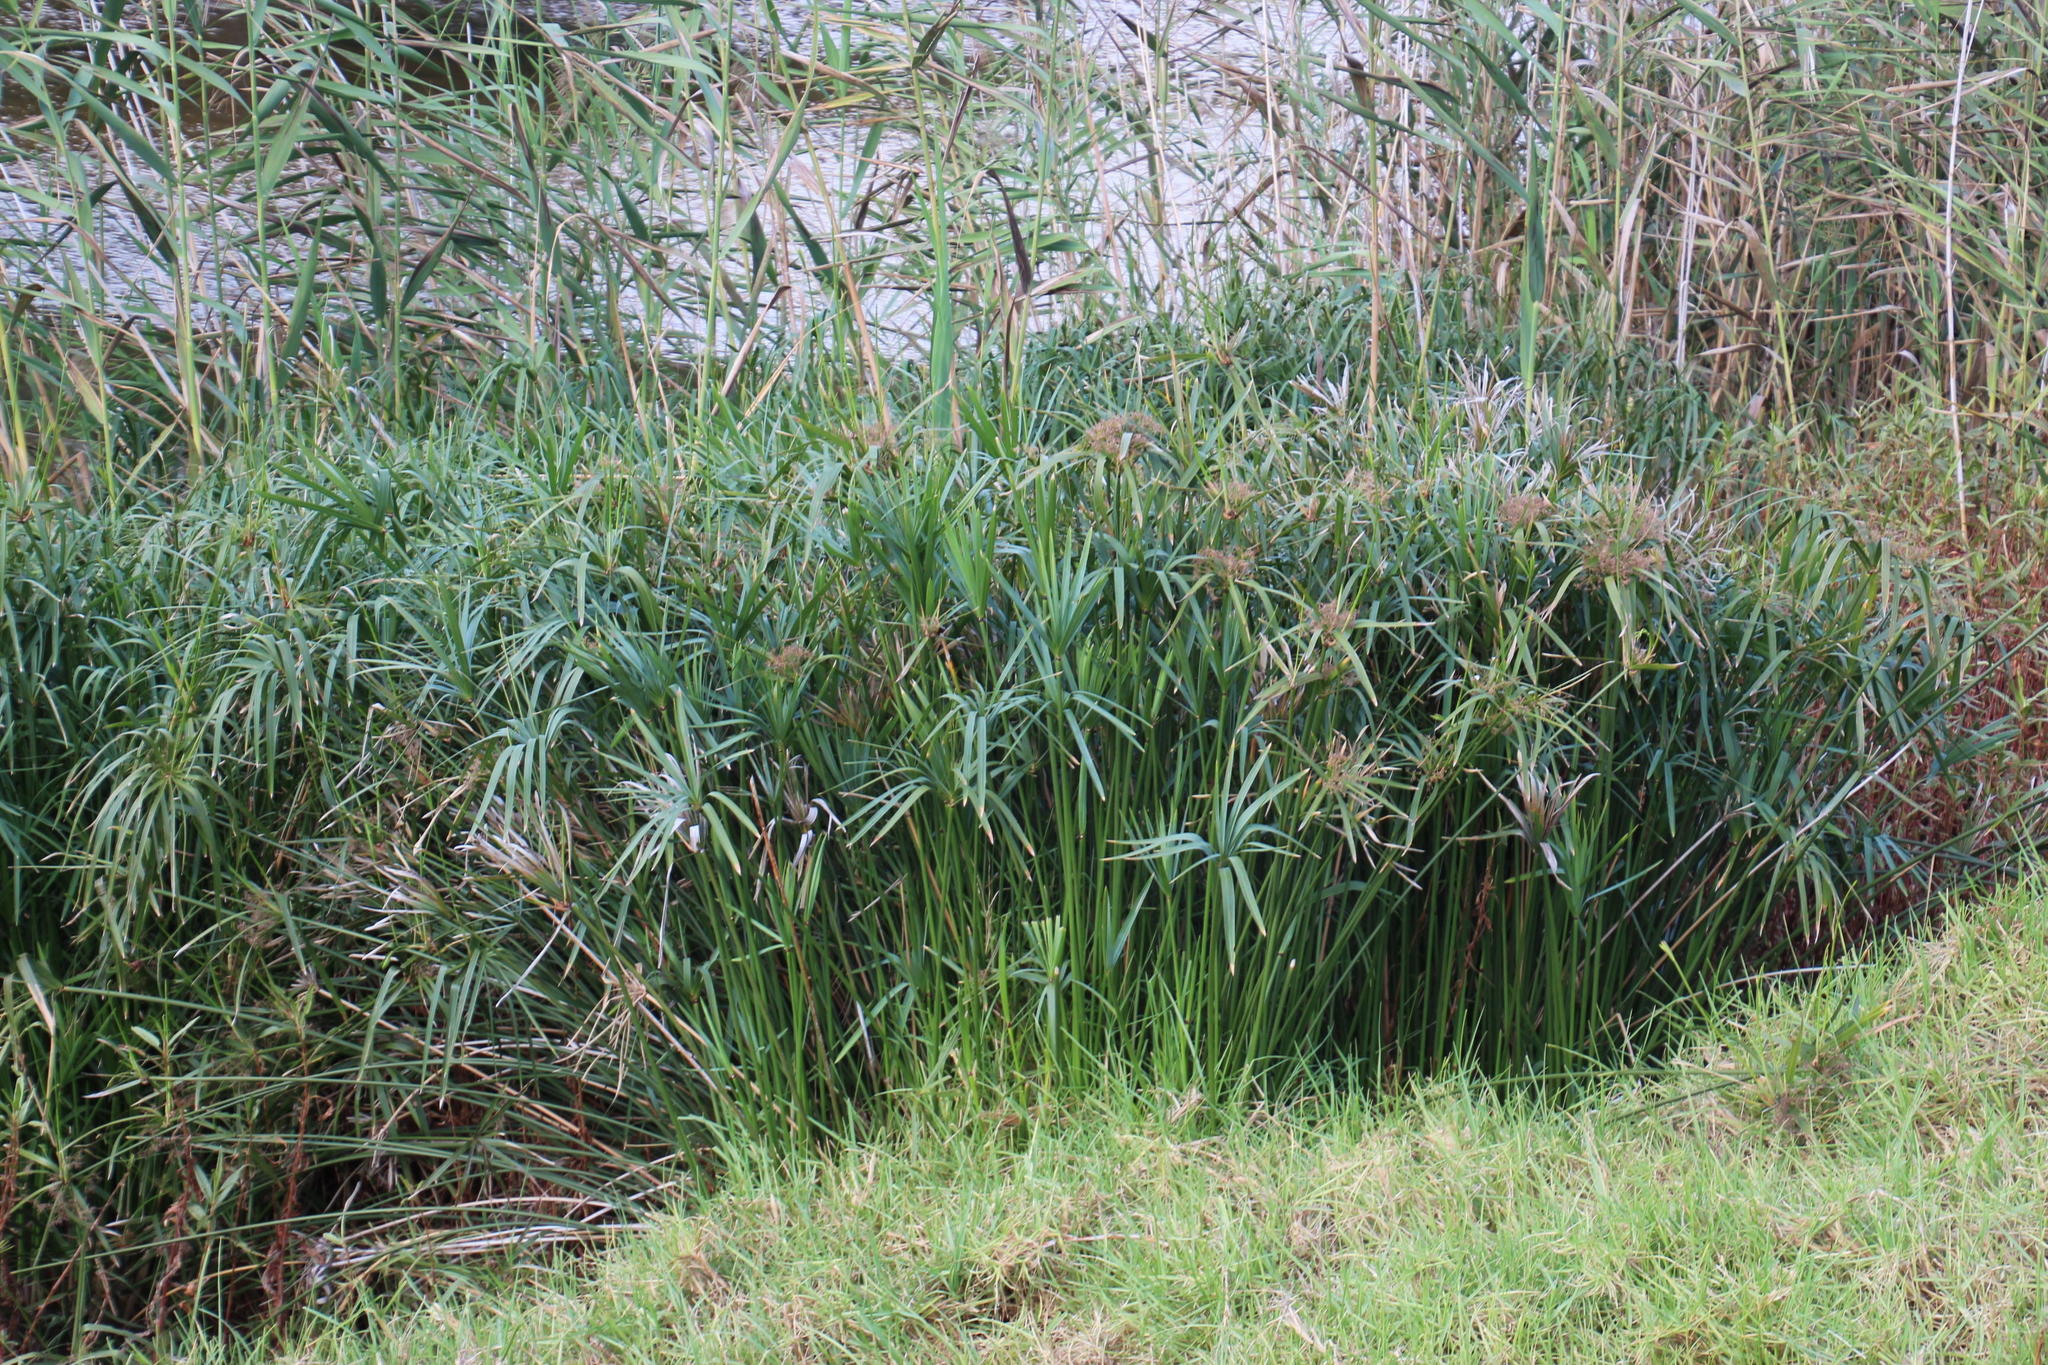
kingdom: Plantae
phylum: Tracheophyta
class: Liliopsida
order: Poales
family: Cyperaceae
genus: Cyperus
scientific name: Cyperus textilis
